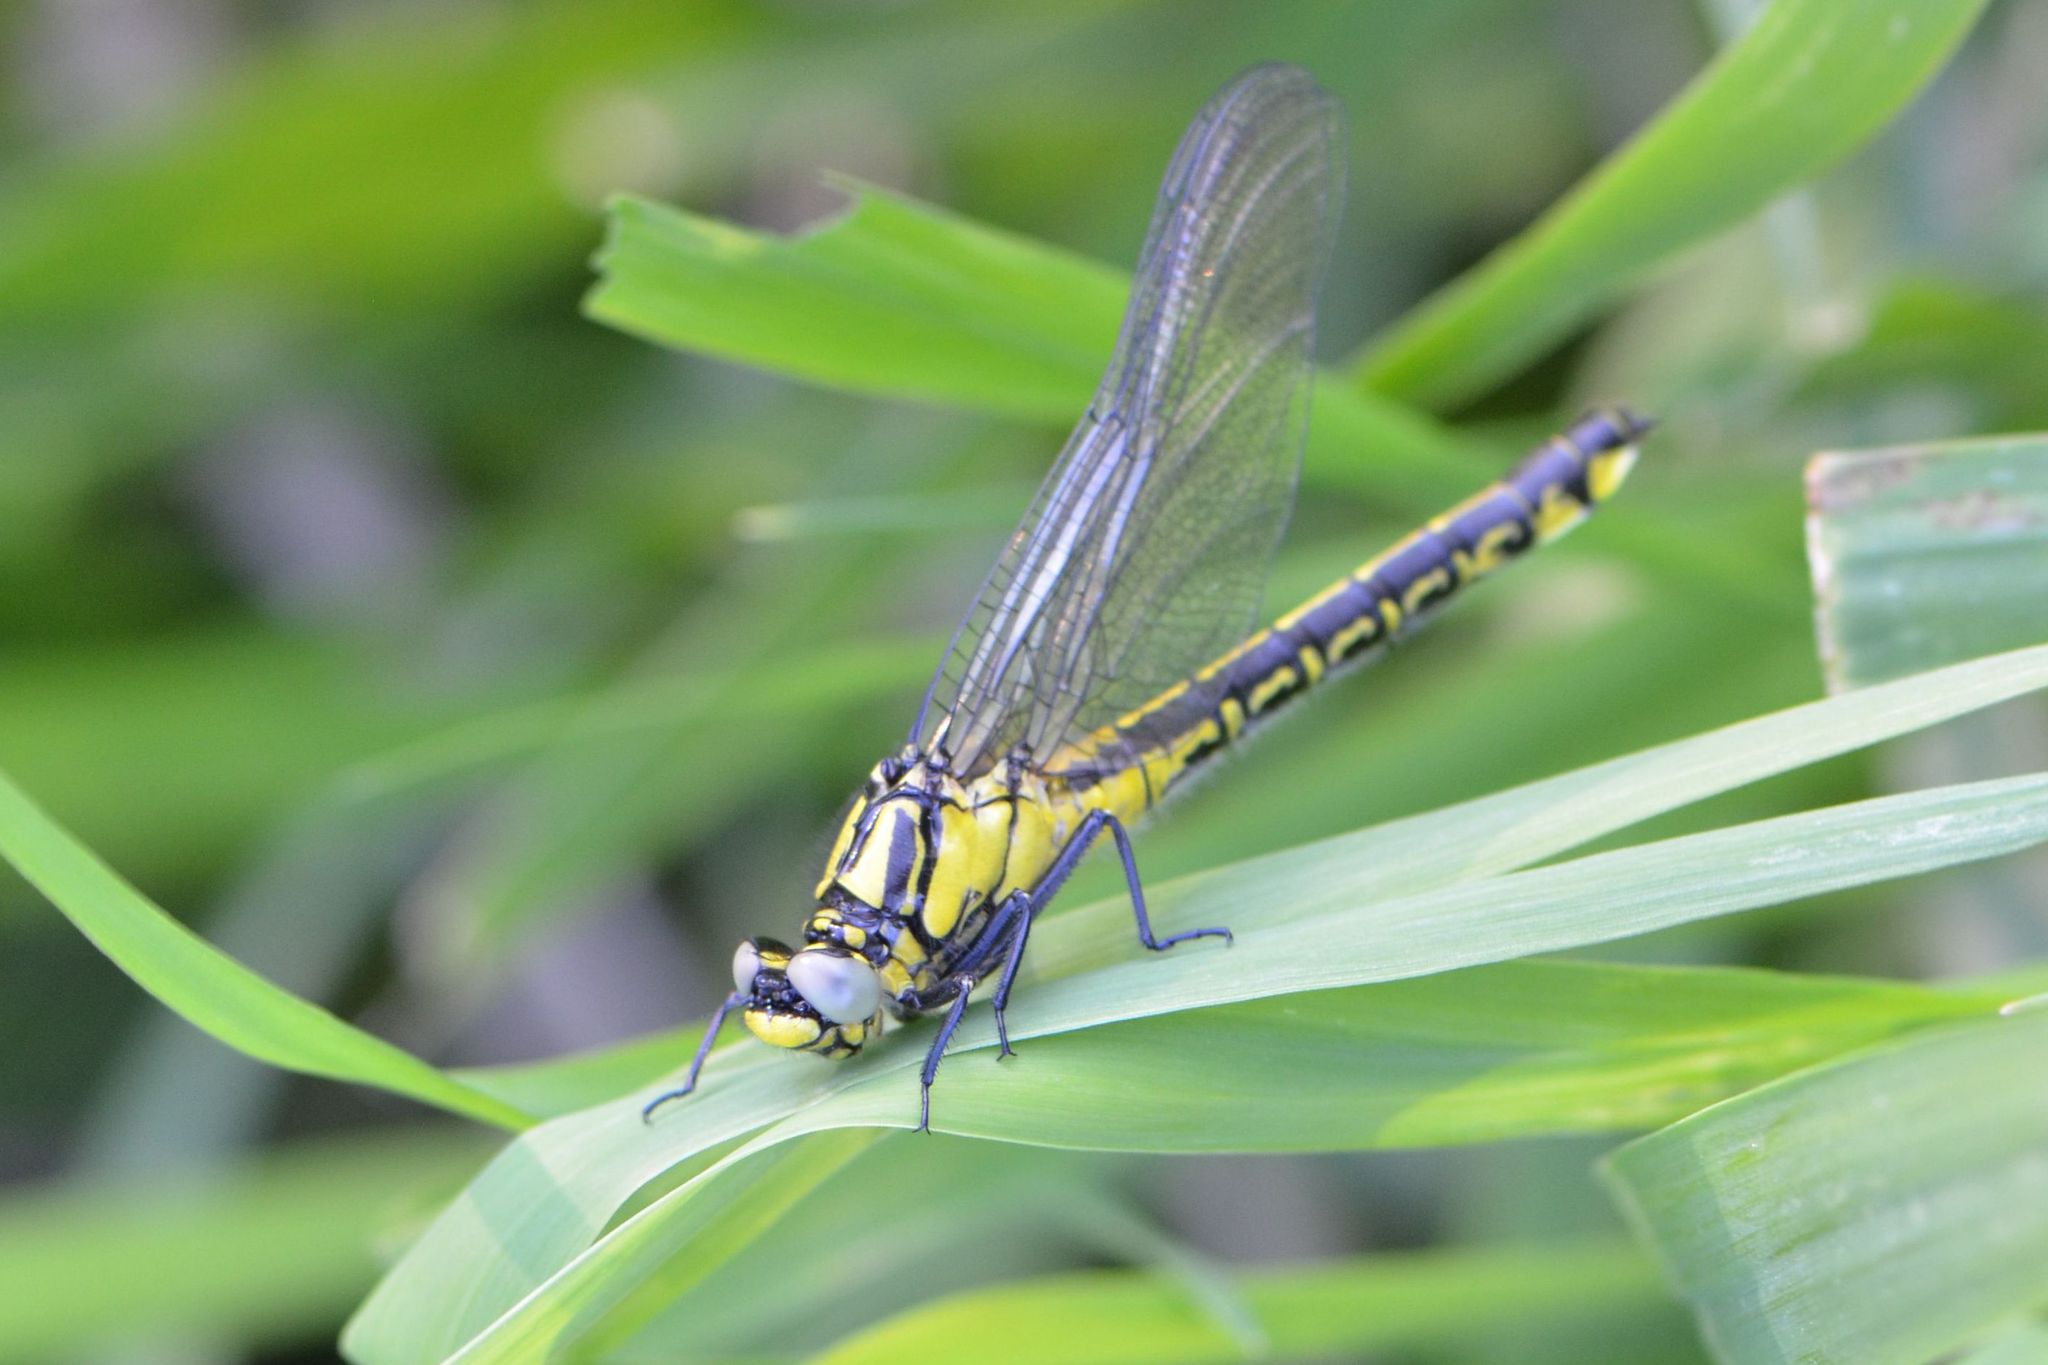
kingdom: Animalia
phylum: Arthropoda
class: Insecta
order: Odonata
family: Gomphidae
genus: Gomphus
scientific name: Gomphus vulgatissimus
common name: Club-tailed dragonfly
